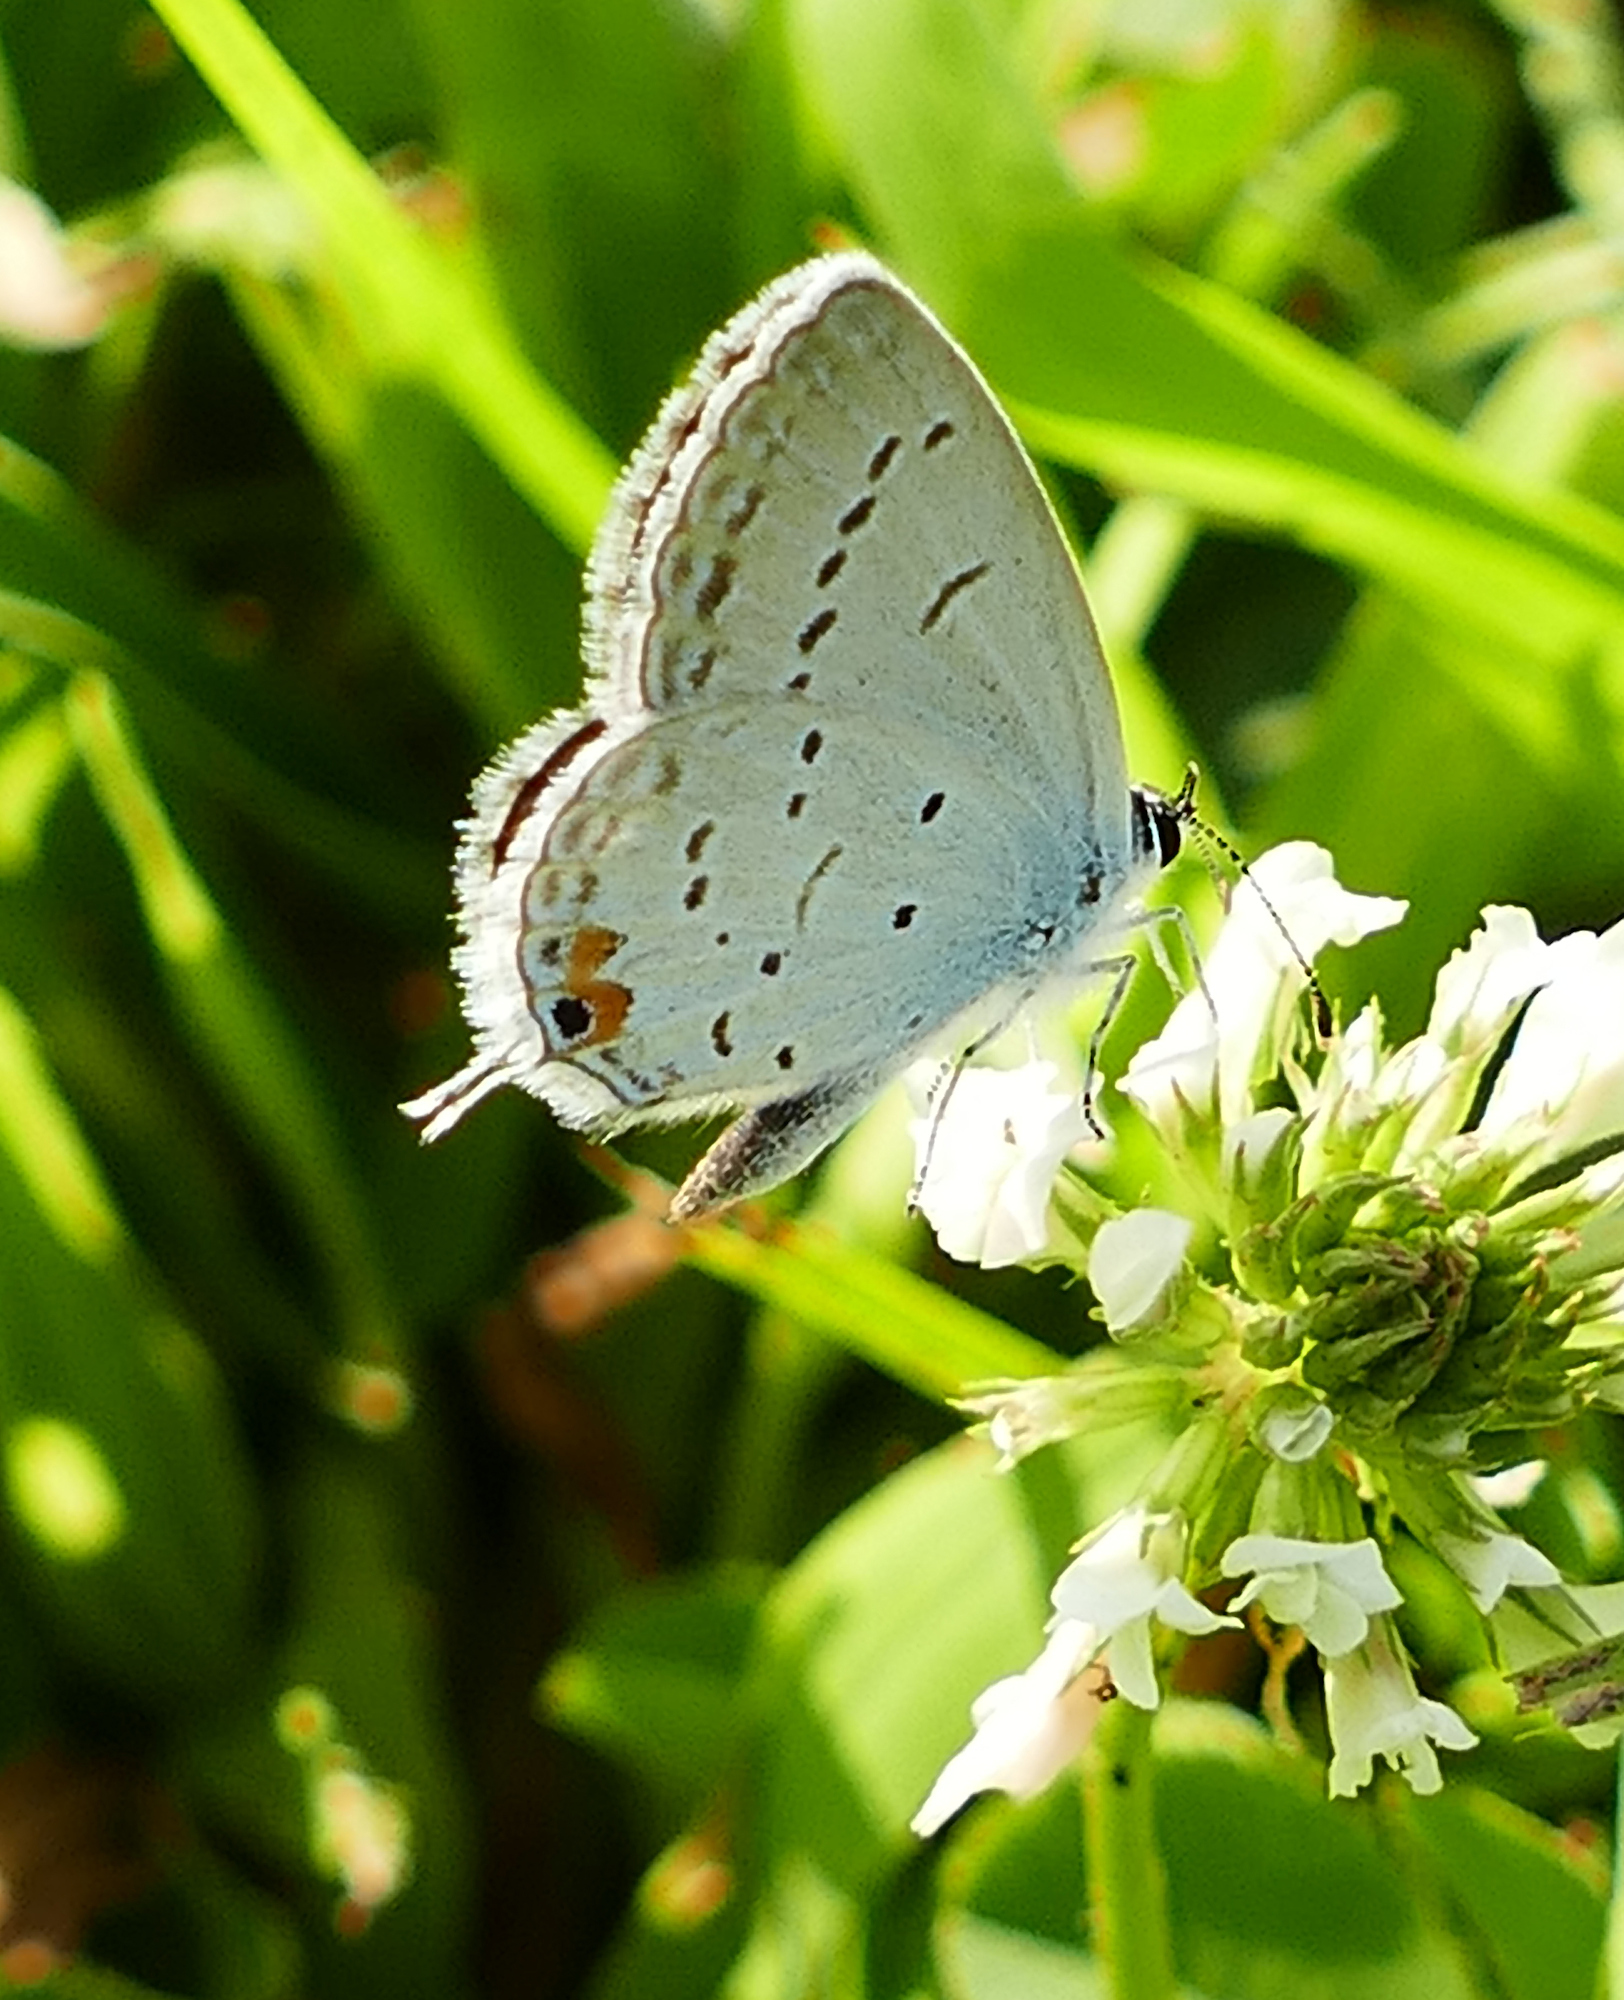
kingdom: Animalia
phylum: Arthropoda
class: Insecta
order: Lepidoptera
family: Lycaenidae
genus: Elkalyce
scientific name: Elkalyce comyntas
